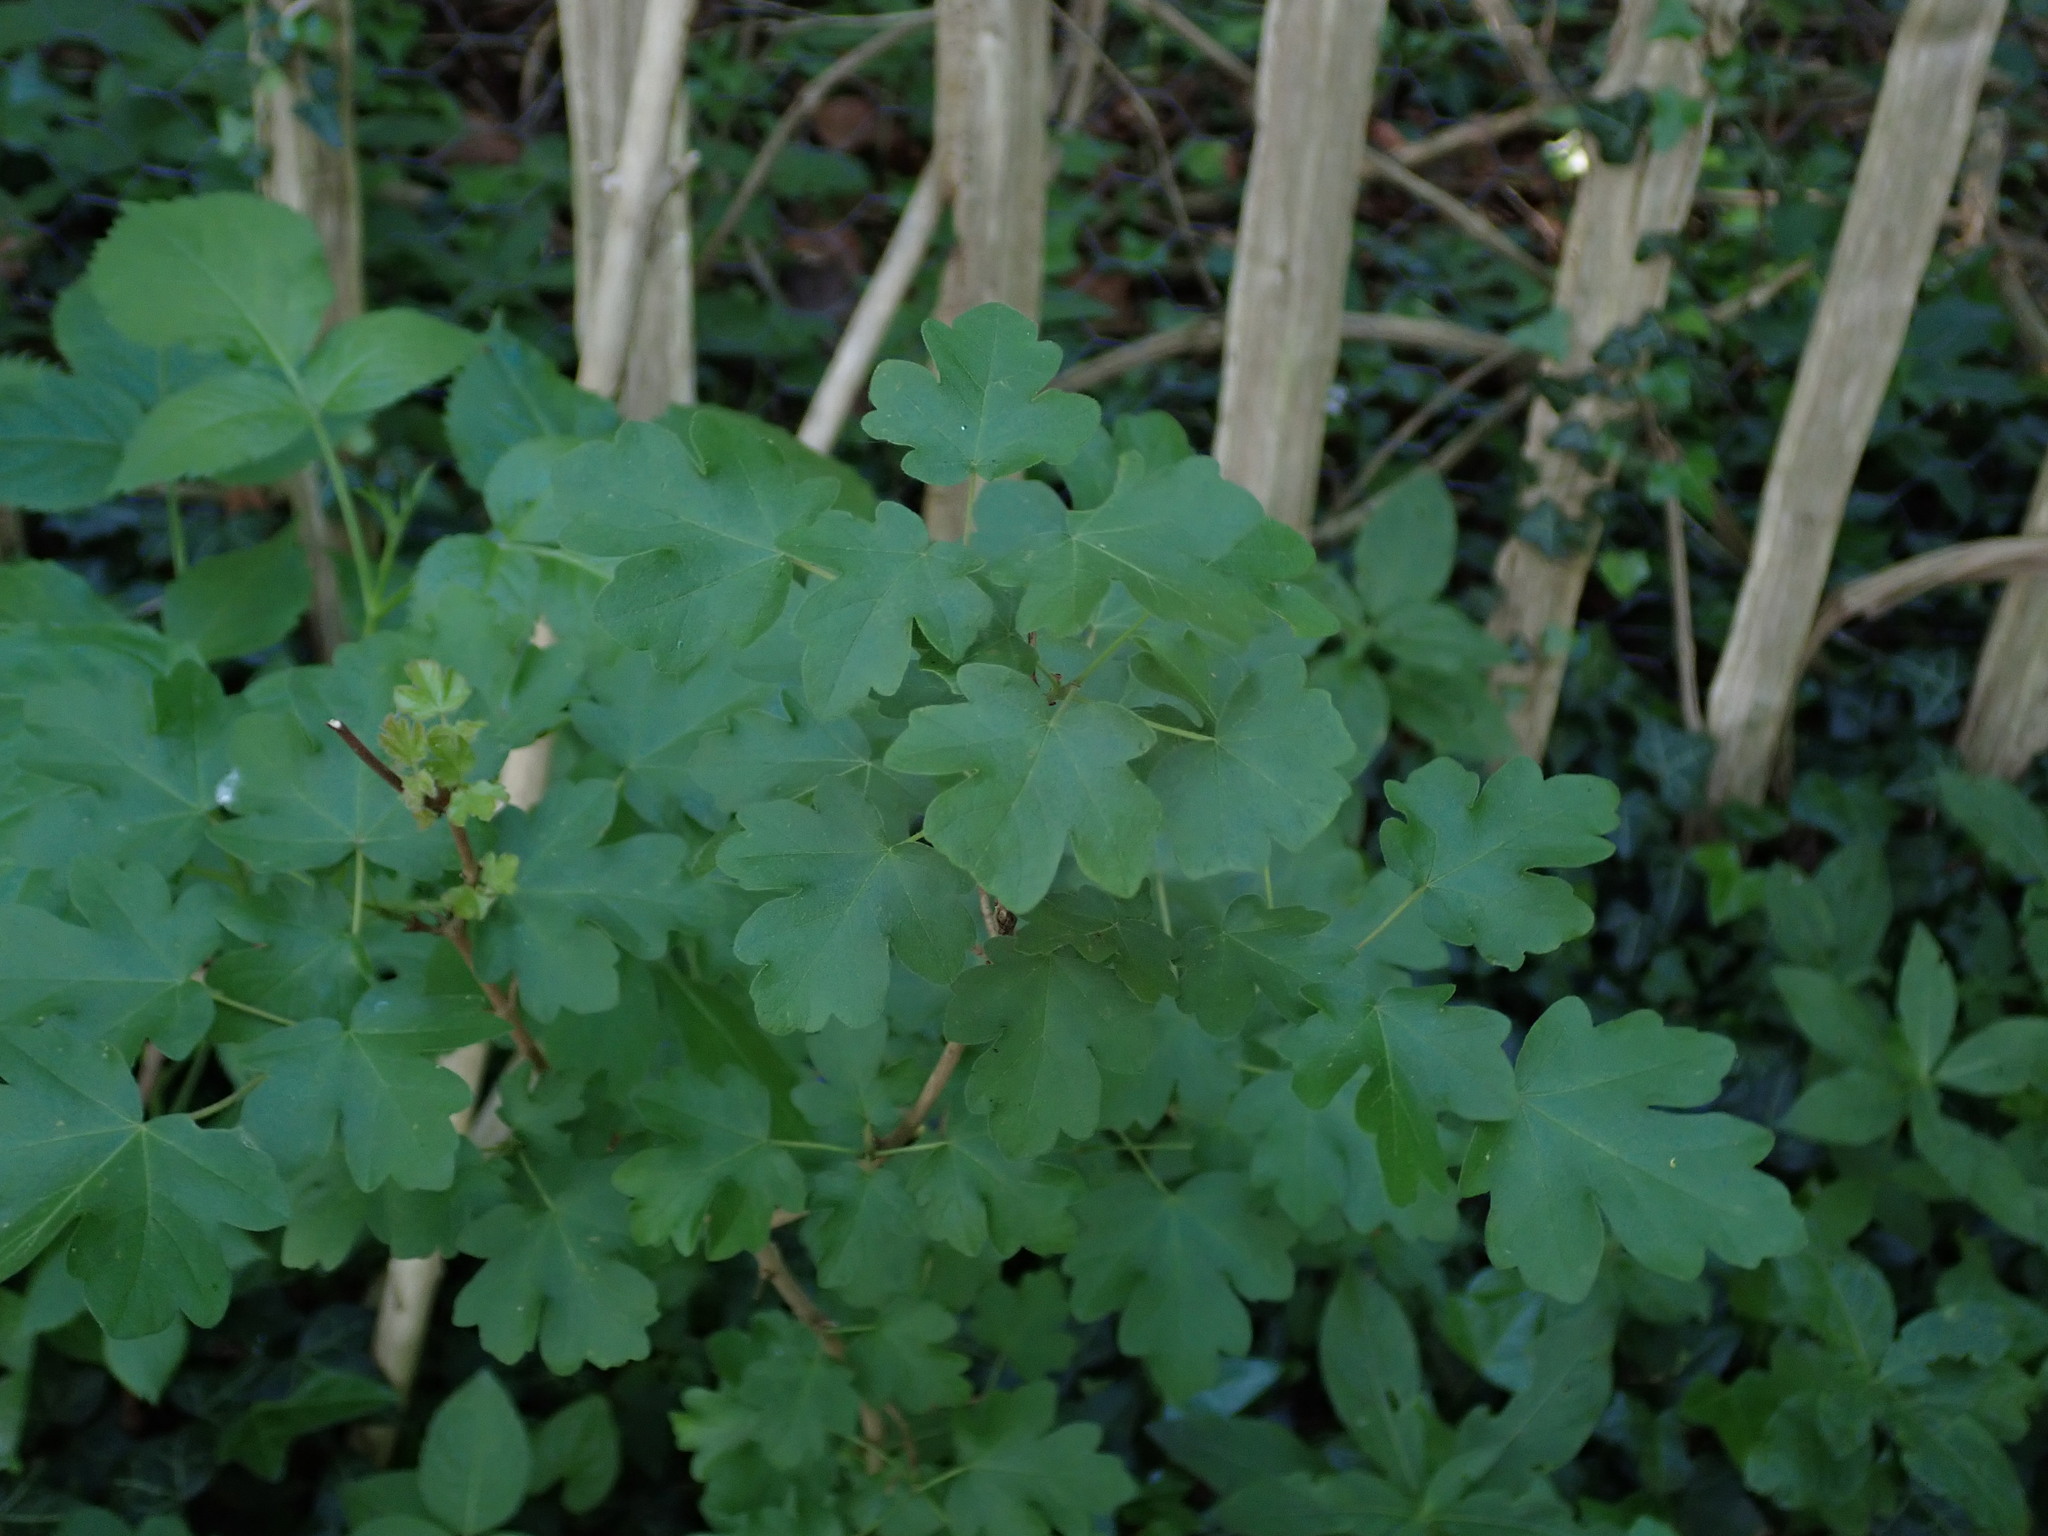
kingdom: Plantae
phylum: Tracheophyta
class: Magnoliopsida
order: Sapindales
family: Sapindaceae
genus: Acer
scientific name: Acer campestre
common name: Field maple
